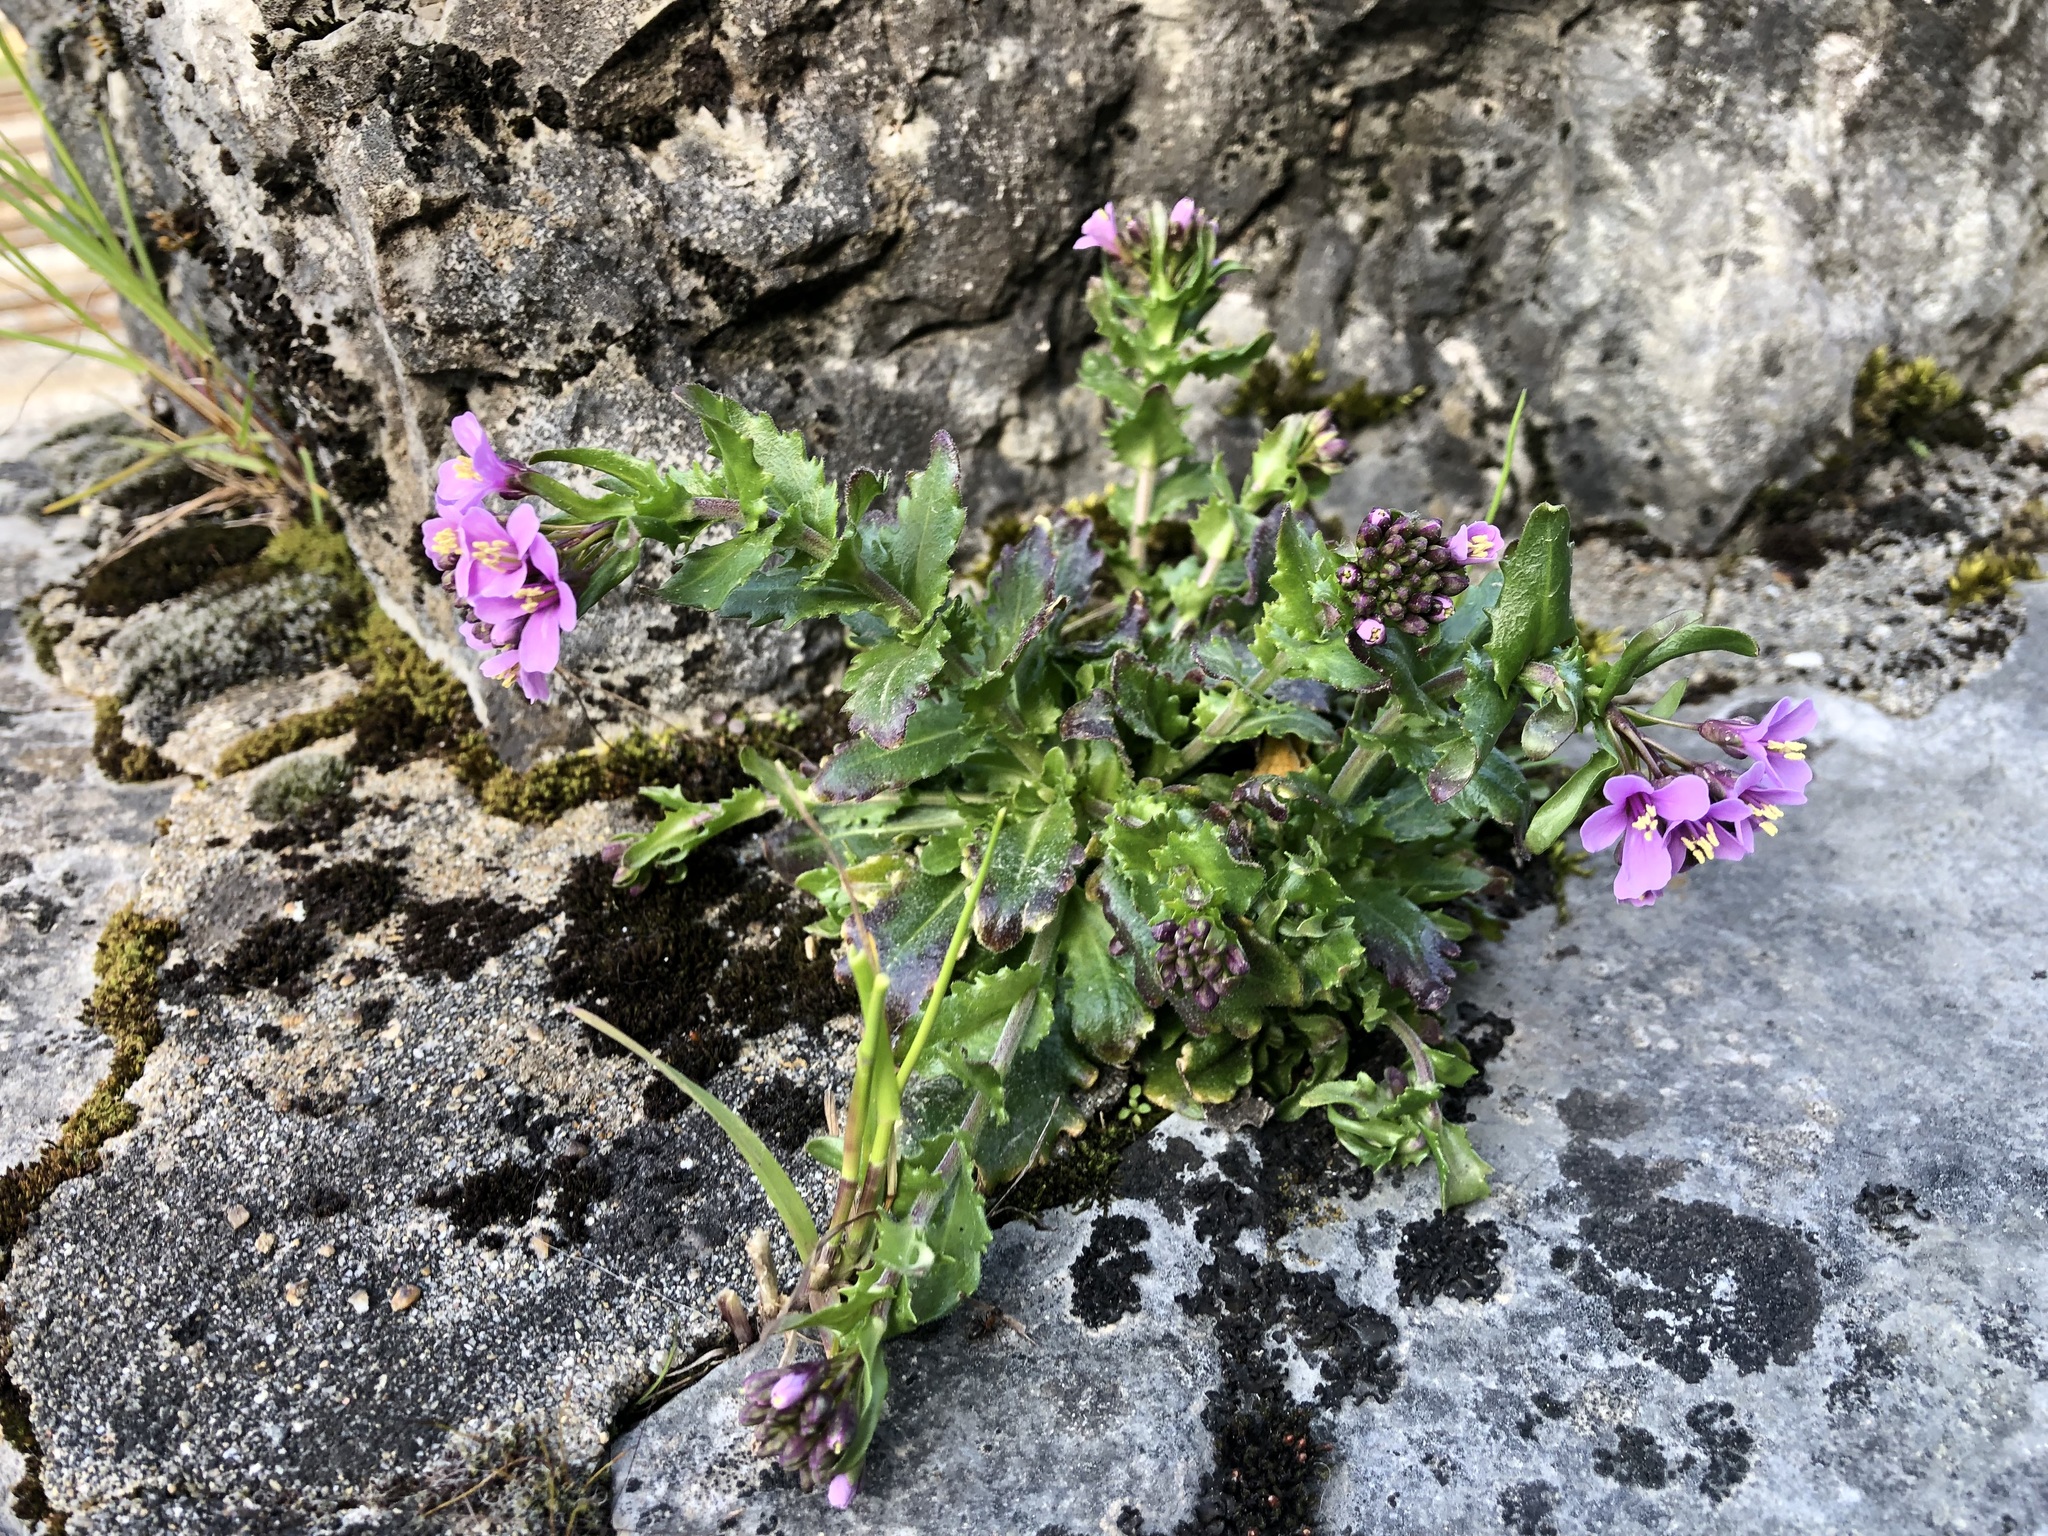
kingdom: Plantae
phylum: Tracheophyta
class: Magnoliopsida
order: Brassicales
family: Brassicaceae
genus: Arabis
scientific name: Arabis collina
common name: Rosy cress
